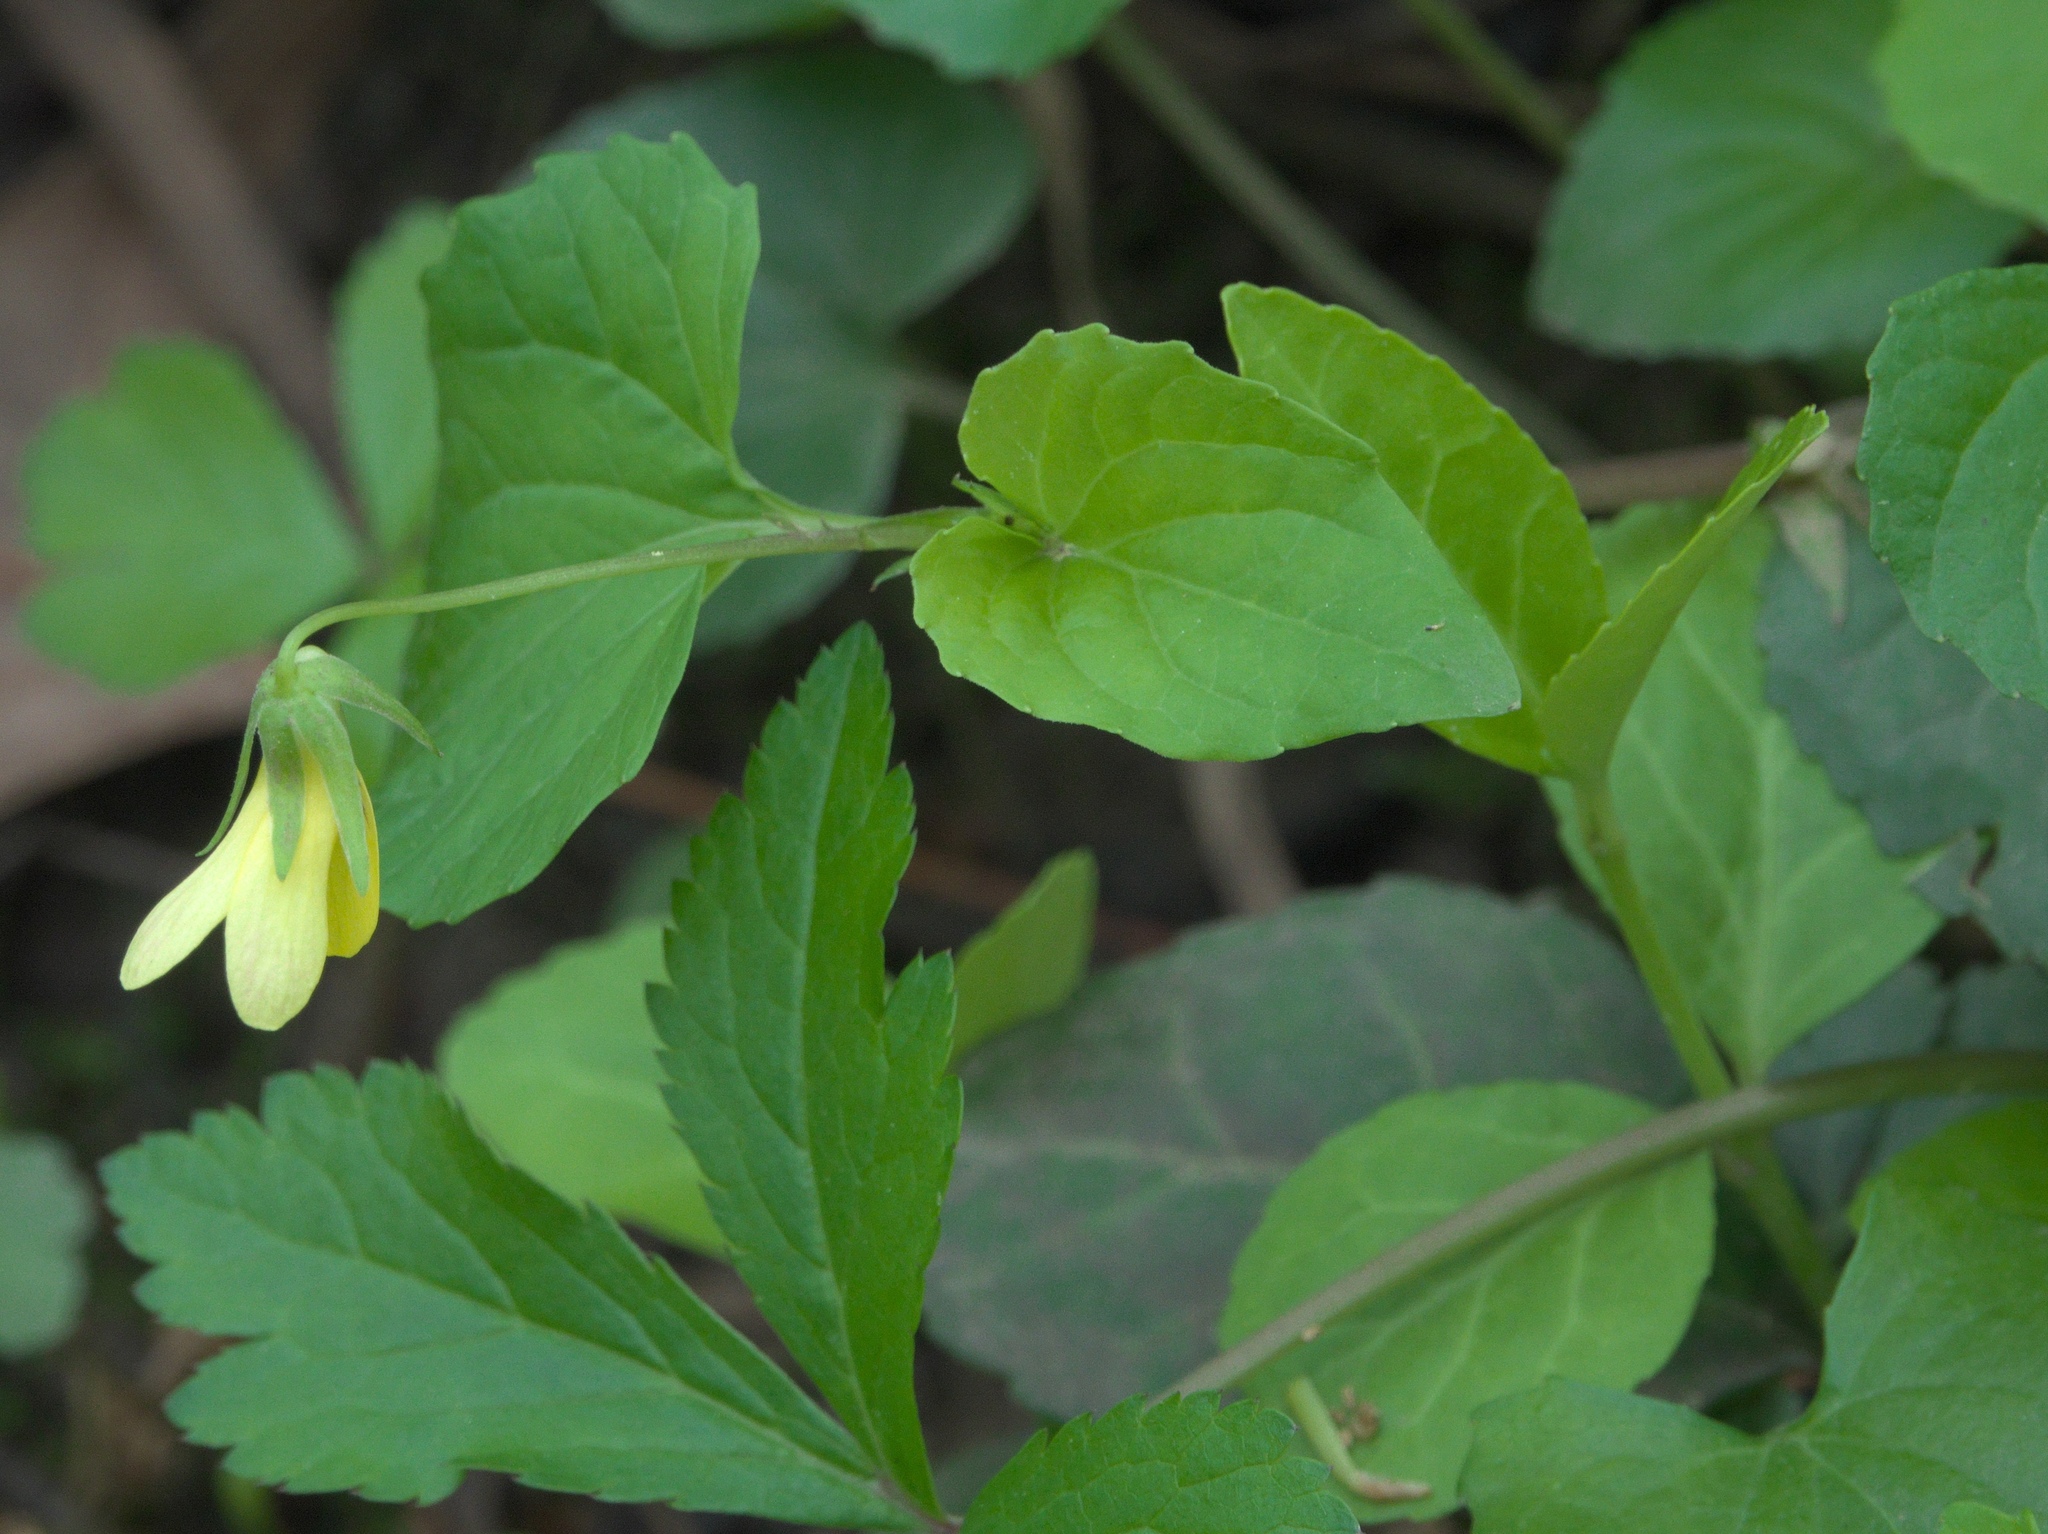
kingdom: Plantae
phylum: Tracheophyta
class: Magnoliopsida
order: Malpighiales
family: Violaceae
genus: Viola
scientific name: Viola eriocarpa
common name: Smooth yellow violet
